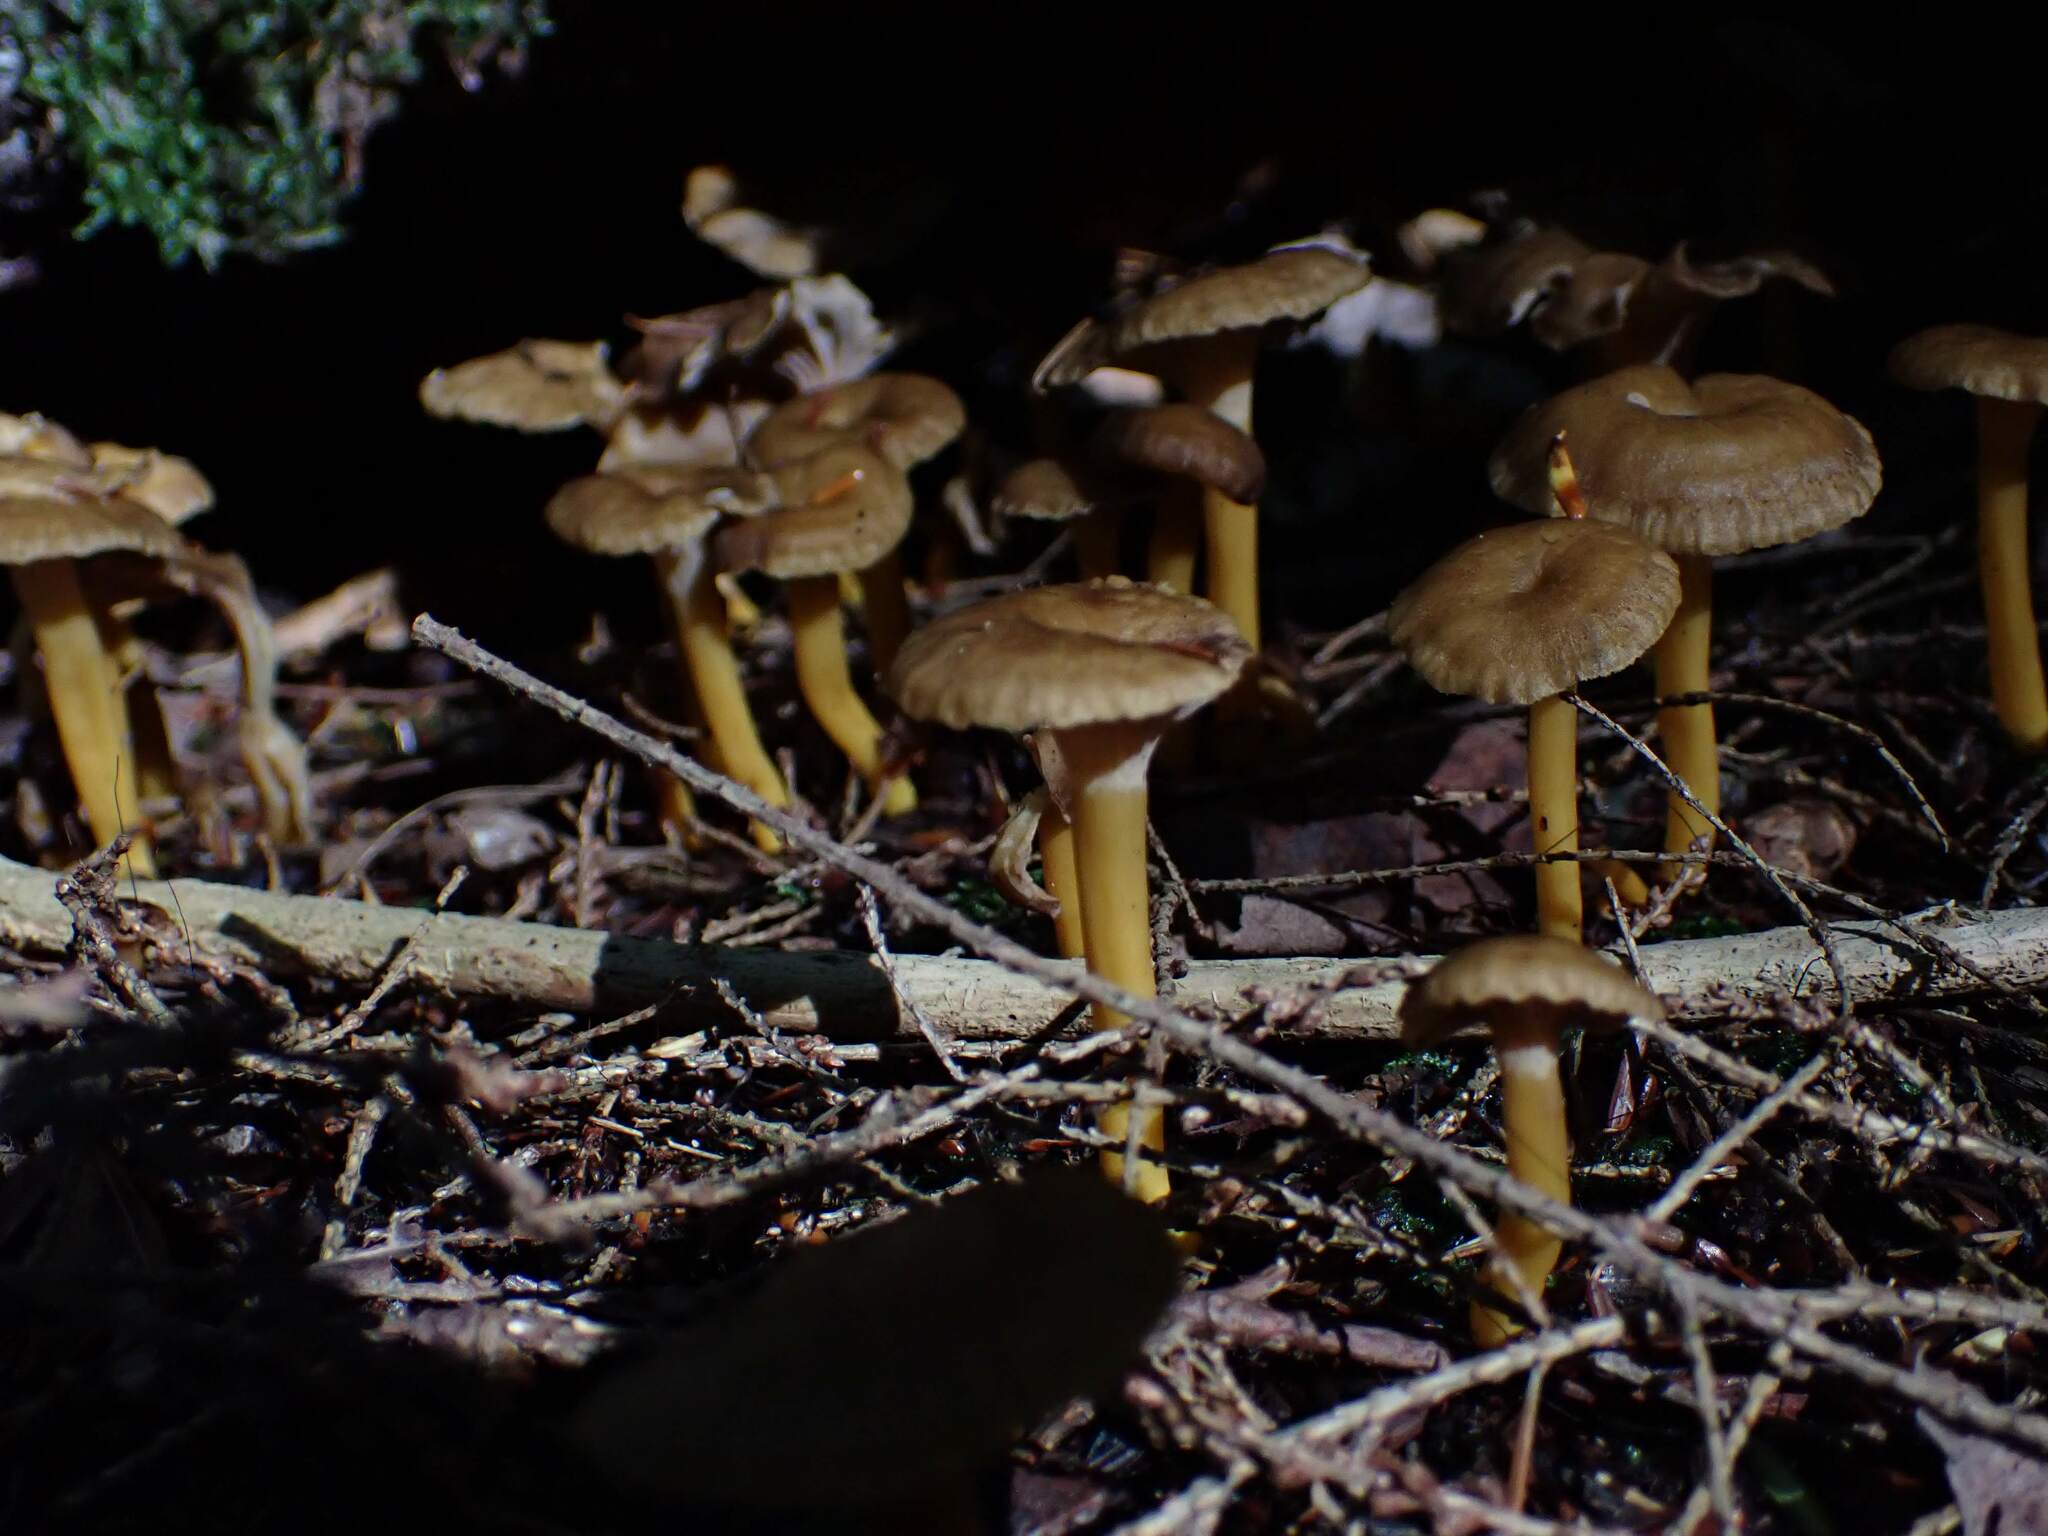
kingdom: Fungi
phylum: Basidiomycota
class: Agaricomycetes
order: Cantharellales
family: Hydnaceae
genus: Craterellus
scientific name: Craterellus tubaeformis
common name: Yellowfoot
